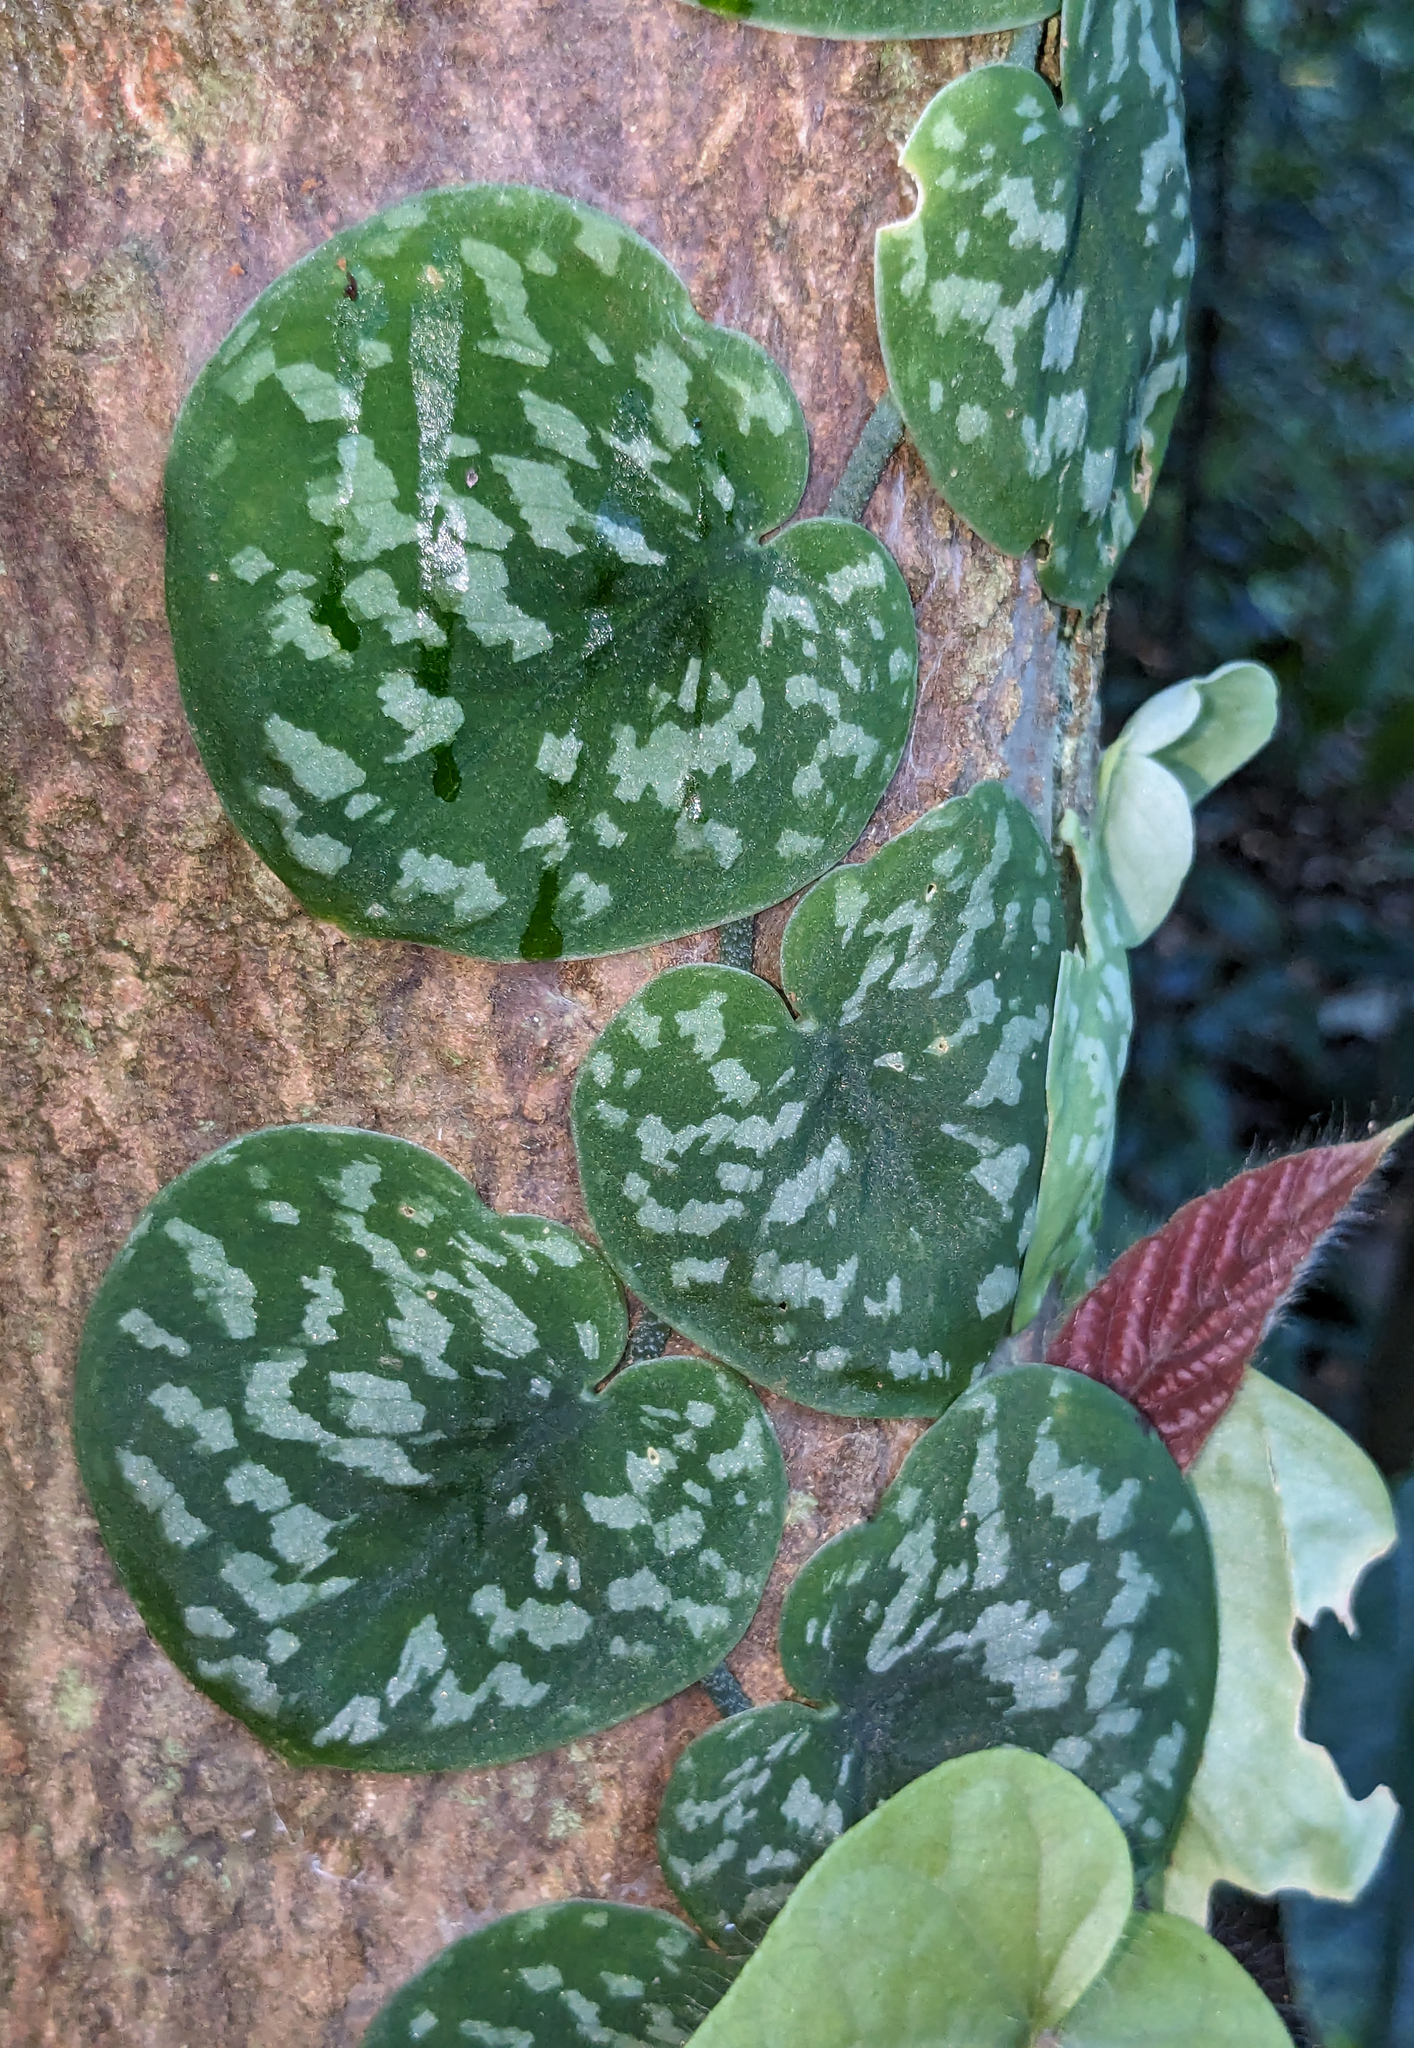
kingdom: Plantae
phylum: Tracheophyta
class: Liliopsida
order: Alismatales
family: Araceae
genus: Scindapsus
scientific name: Scindapsus pictus
